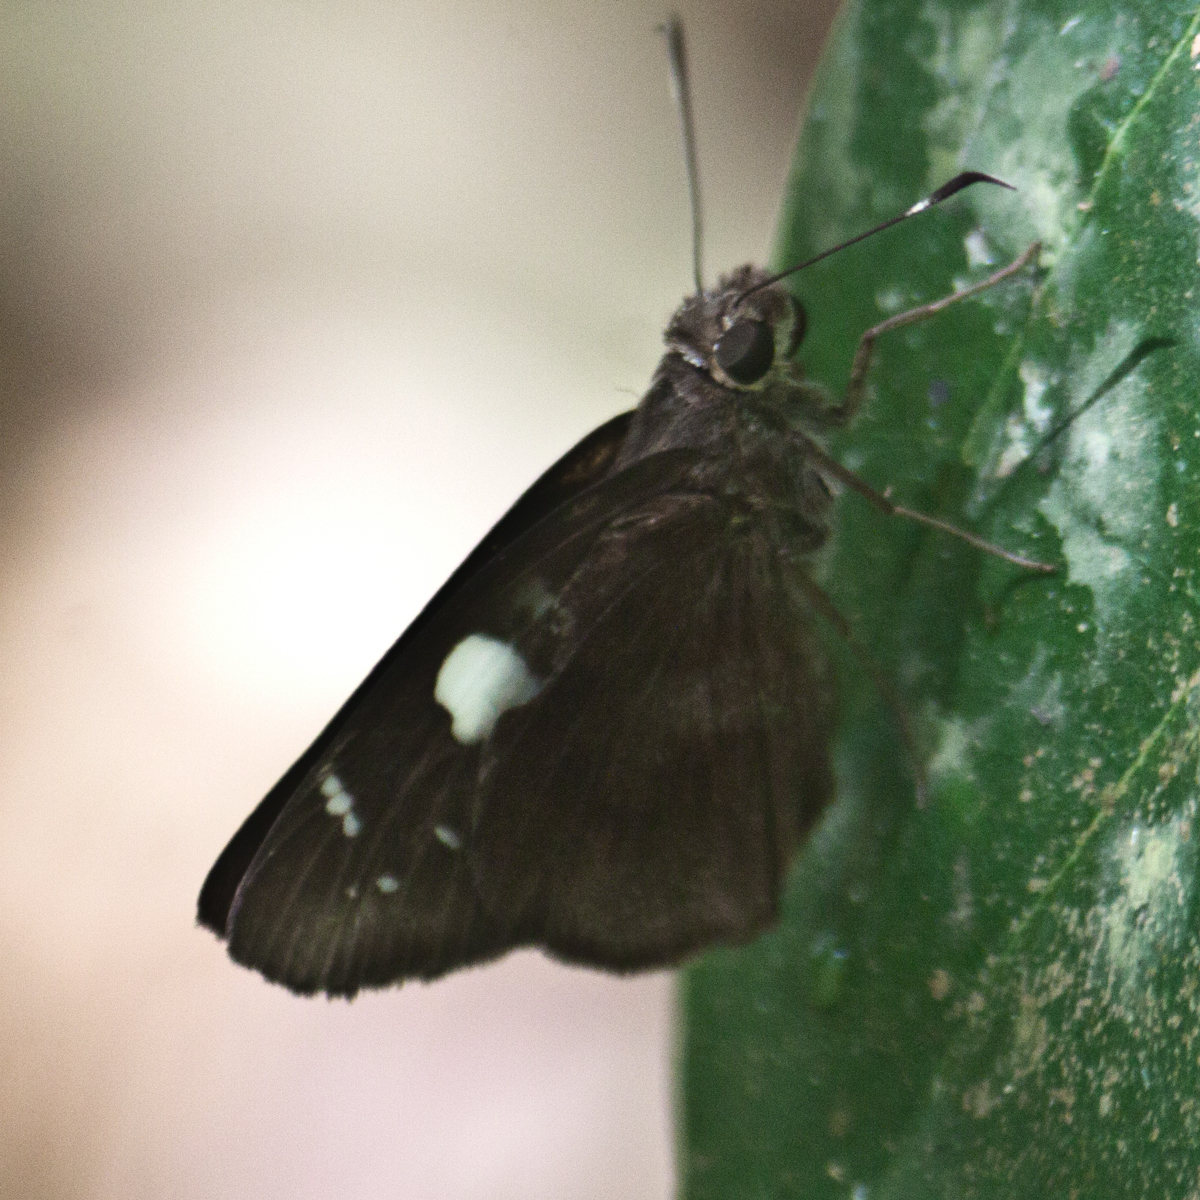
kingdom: Animalia
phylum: Arthropoda
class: Insecta
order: Lepidoptera
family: Hesperiidae
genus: Notocrypta
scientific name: Notocrypta curvifascia
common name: Restricted demon
